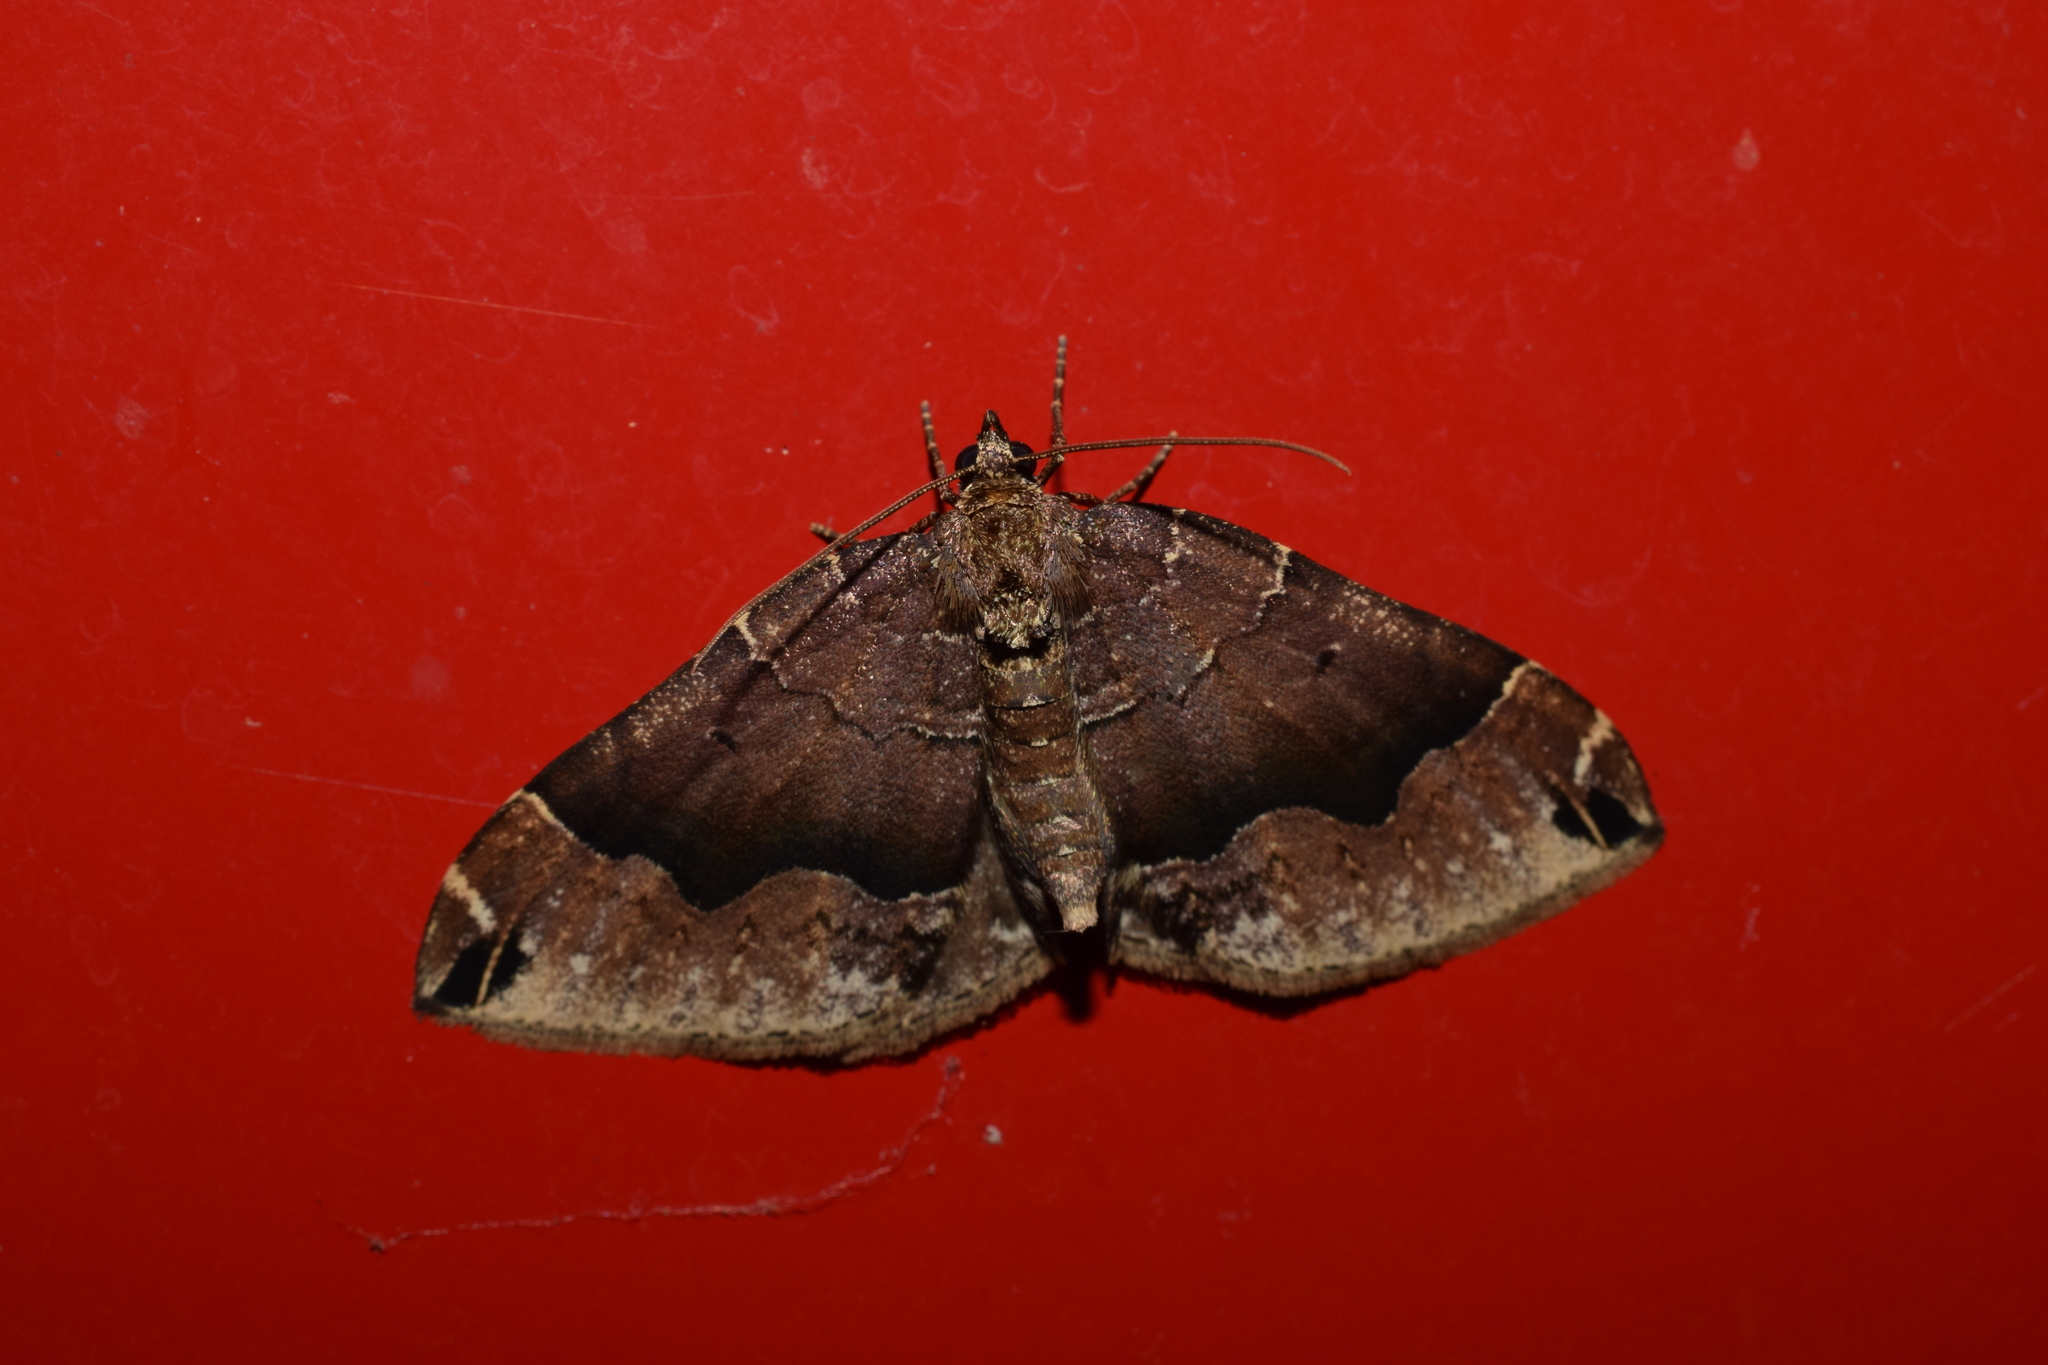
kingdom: Animalia
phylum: Arthropoda
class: Insecta
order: Lepidoptera
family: Geometridae
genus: Xenortholitha
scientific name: Xenortholitha propinguata
